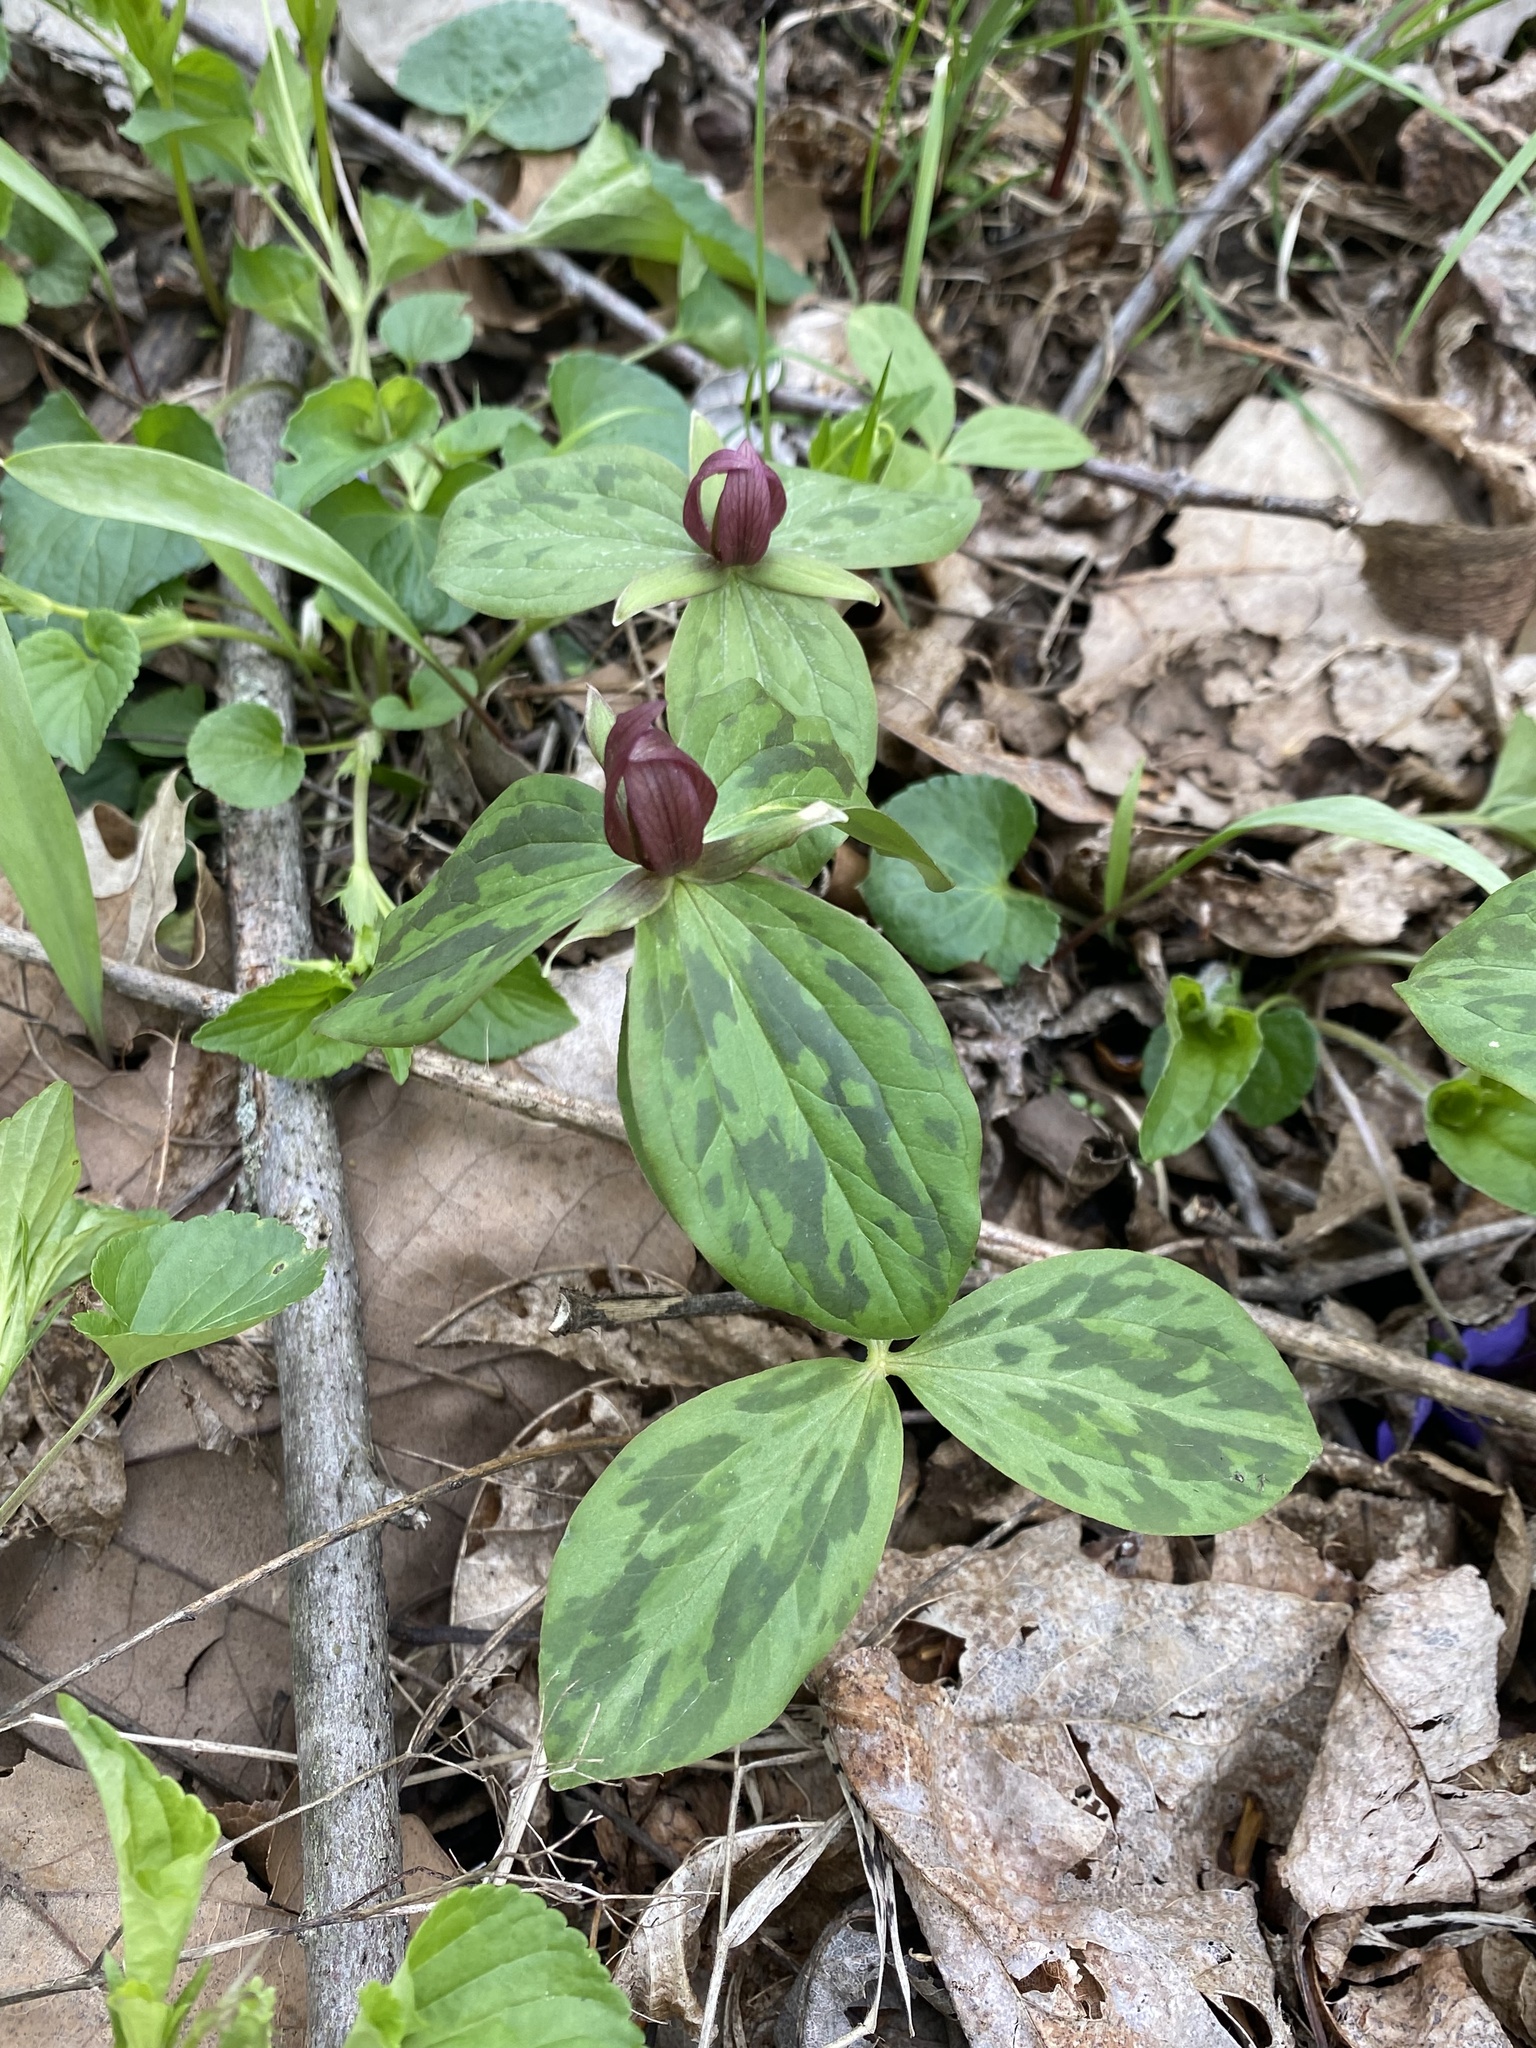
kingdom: Plantae
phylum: Tracheophyta
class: Liliopsida
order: Liliales
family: Melanthiaceae
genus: Trillium
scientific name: Trillium sessile
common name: Sessile trillium
